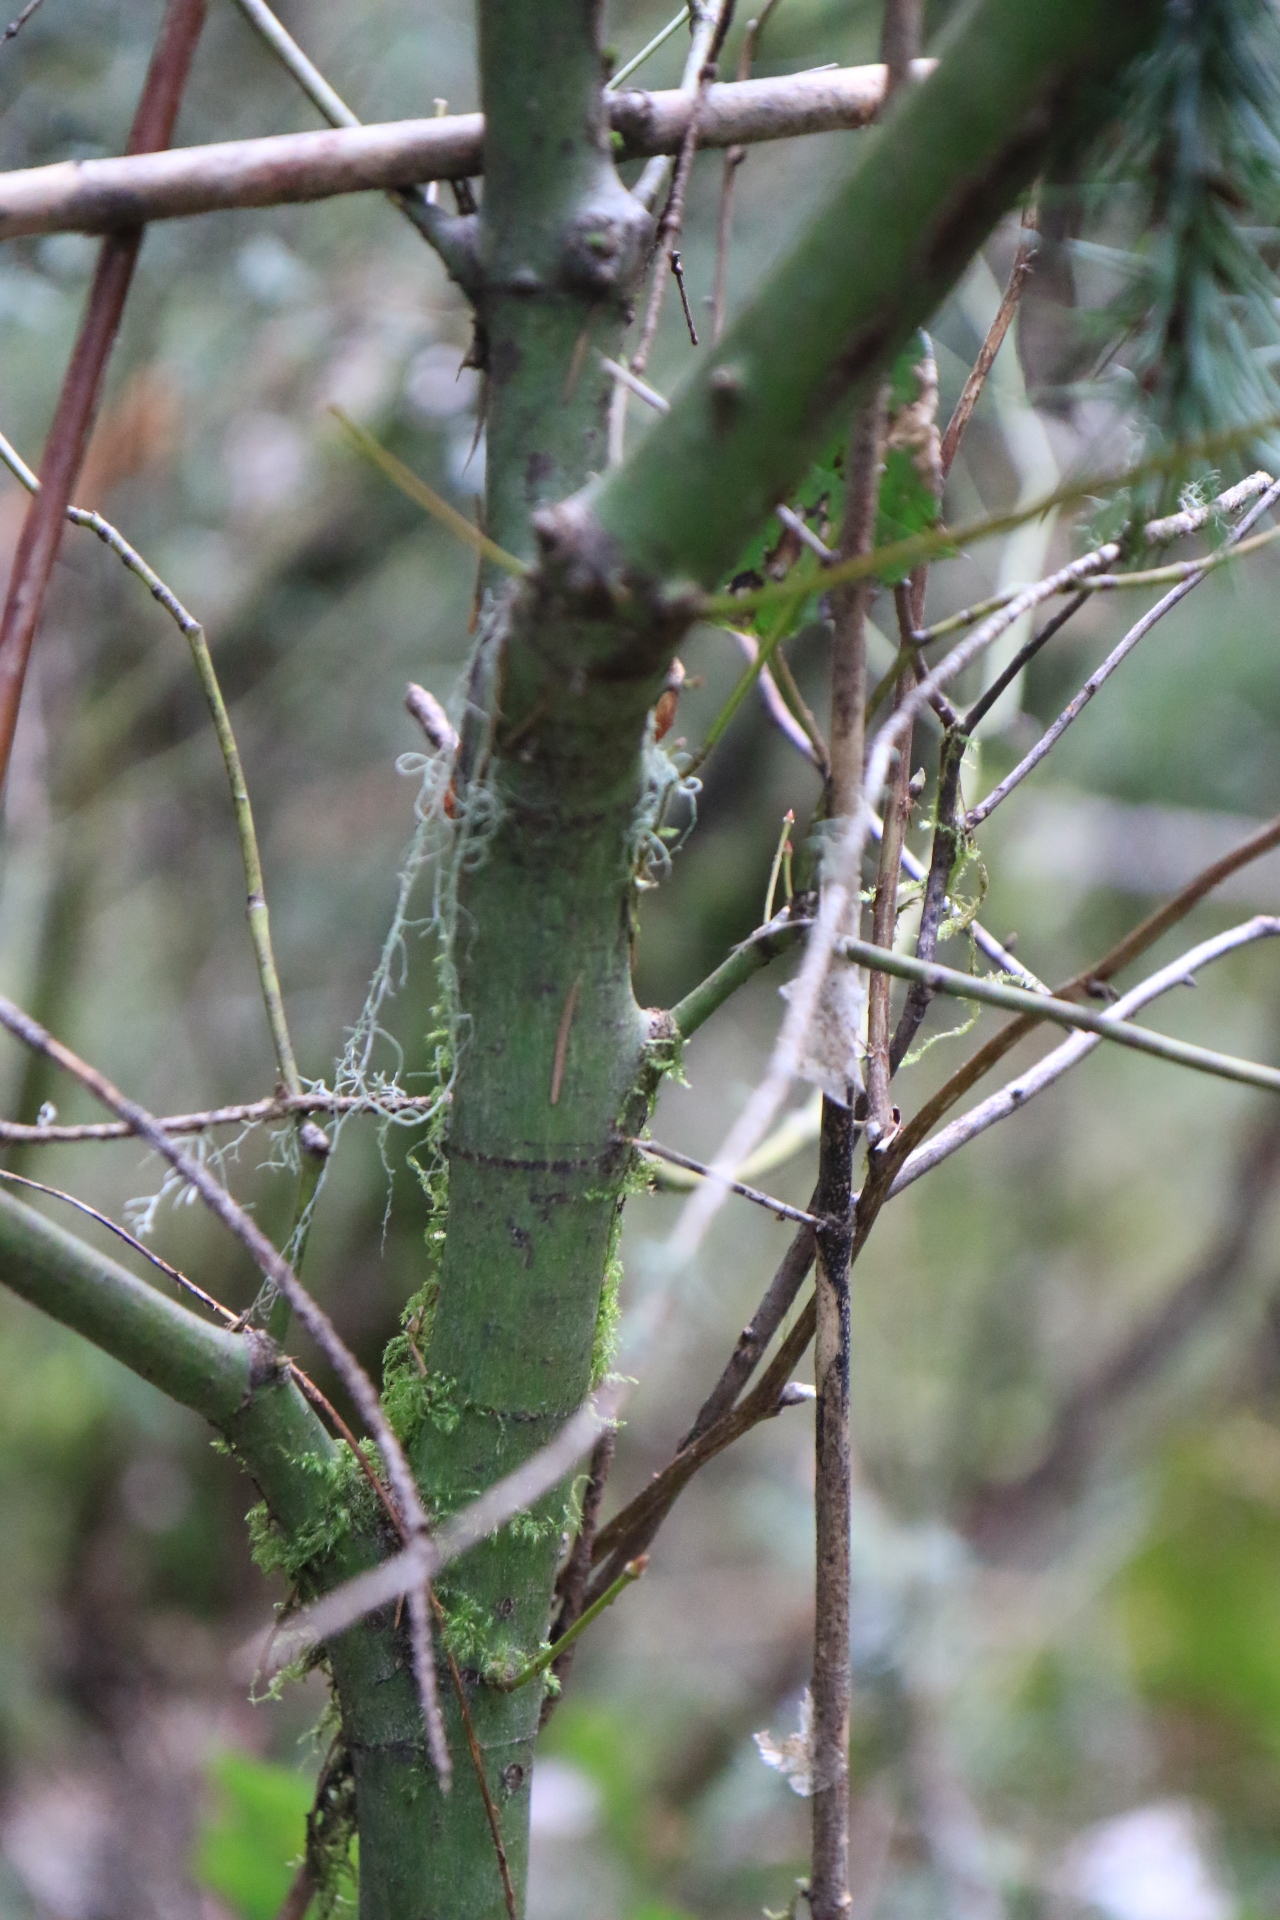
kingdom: Plantae
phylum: Tracheophyta
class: Magnoliopsida
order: Sapindales
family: Sapindaceae
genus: Acer
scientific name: Acer circinatum
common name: Vine maple
